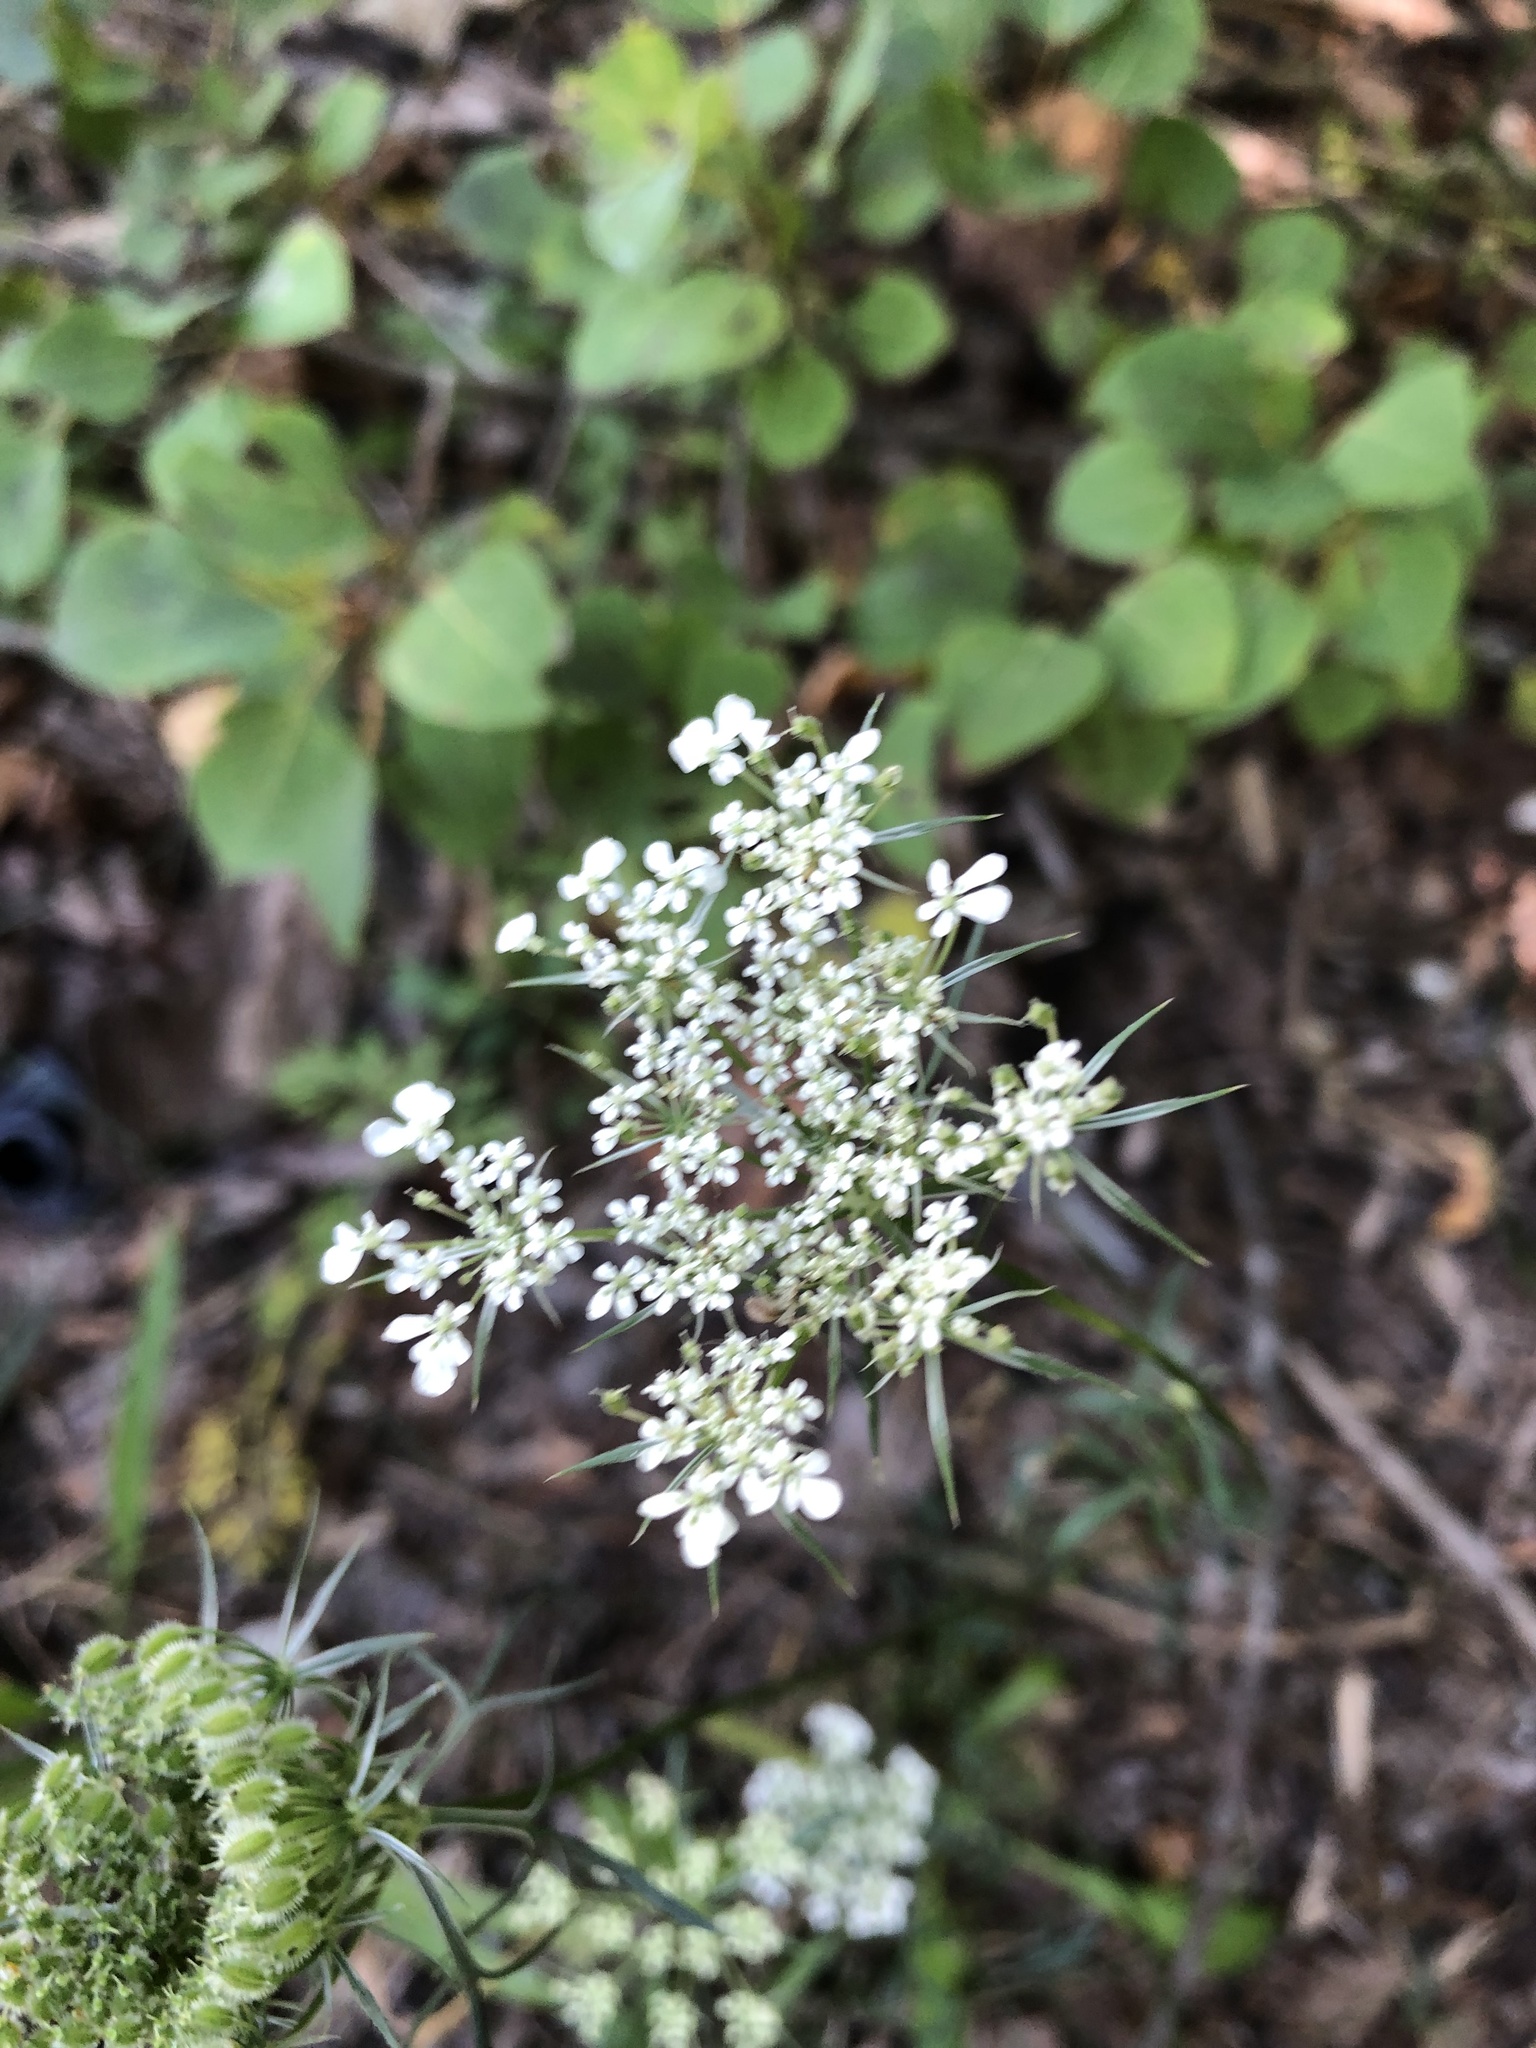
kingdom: Plantae
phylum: Tracheophyta
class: Magnoliopsida
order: Apiales
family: Apiaceae
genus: Daucus
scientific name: Daucus carota
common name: Wild carrot
